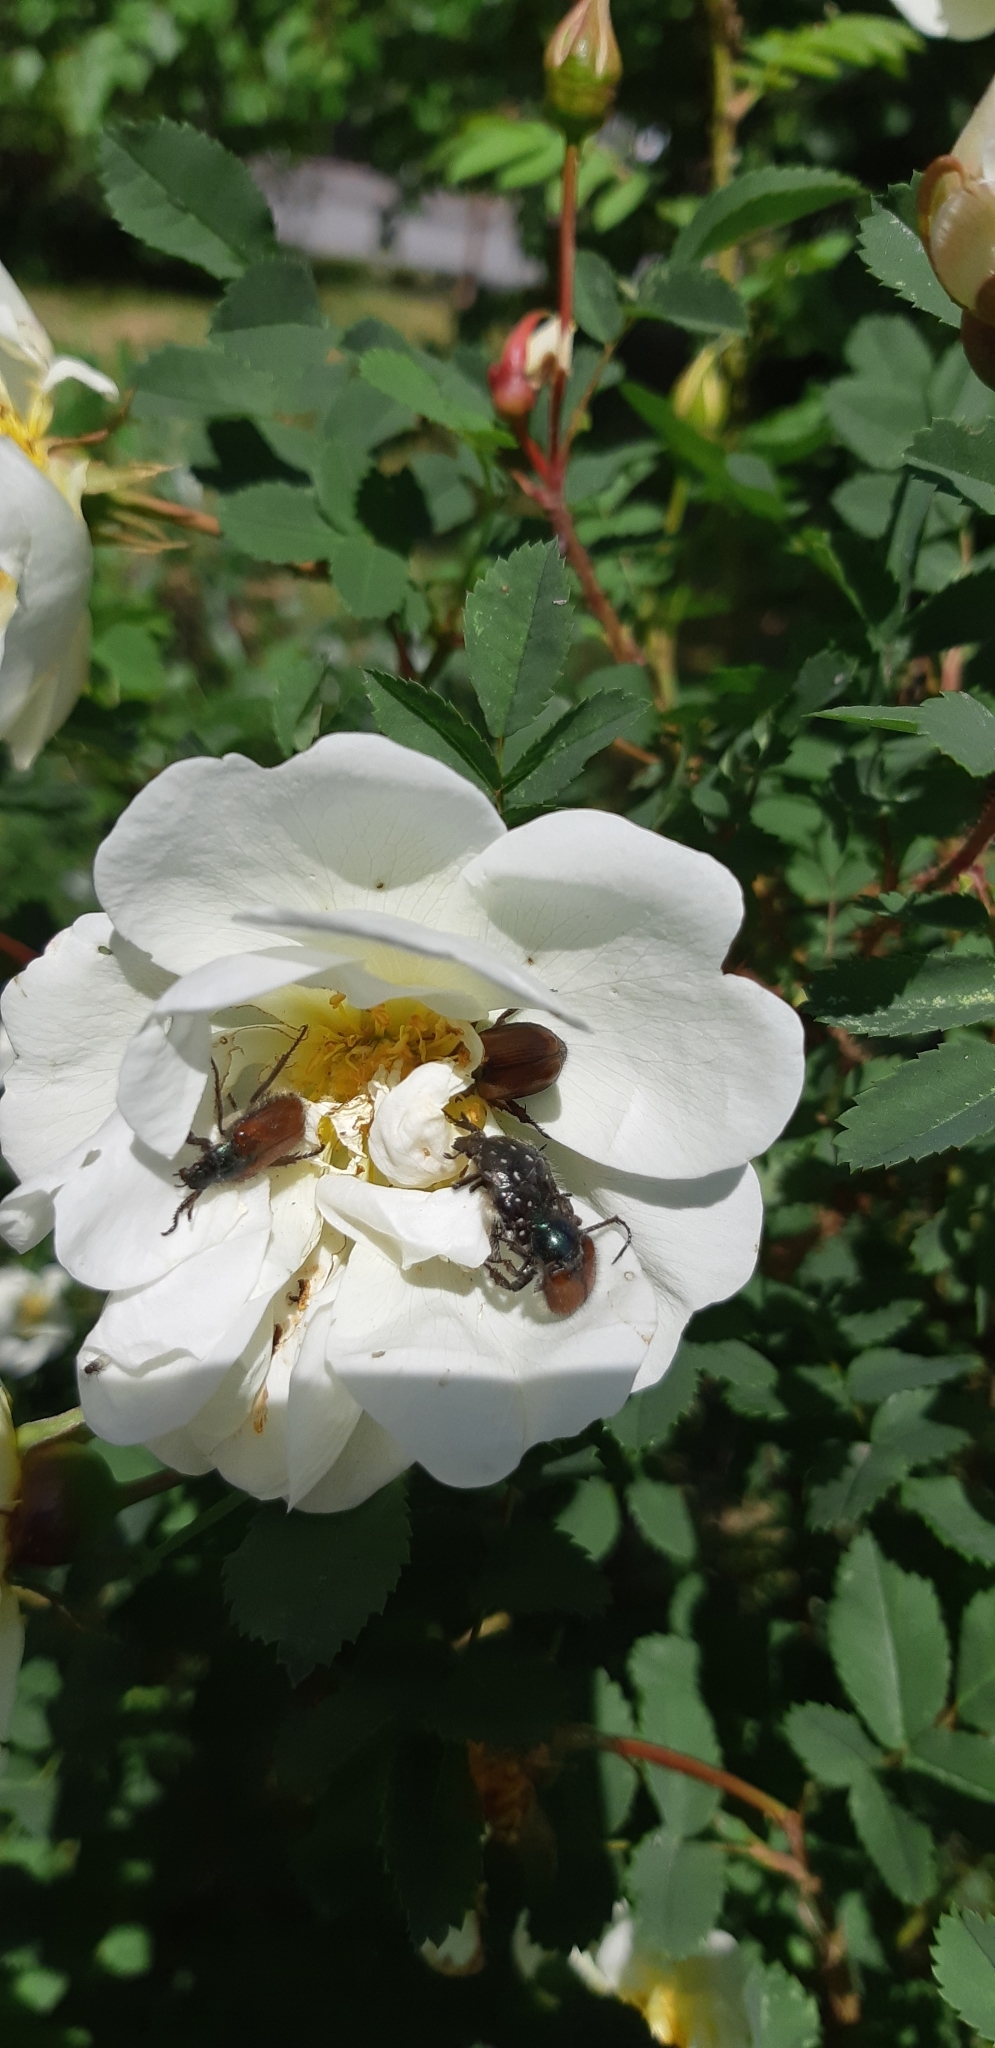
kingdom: Animalia
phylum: Arthropoda
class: Insecta
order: Coleoptera
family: Scarabaeidae
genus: Phyllopertha
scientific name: Phyllopertha horticola
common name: Garden chafer
